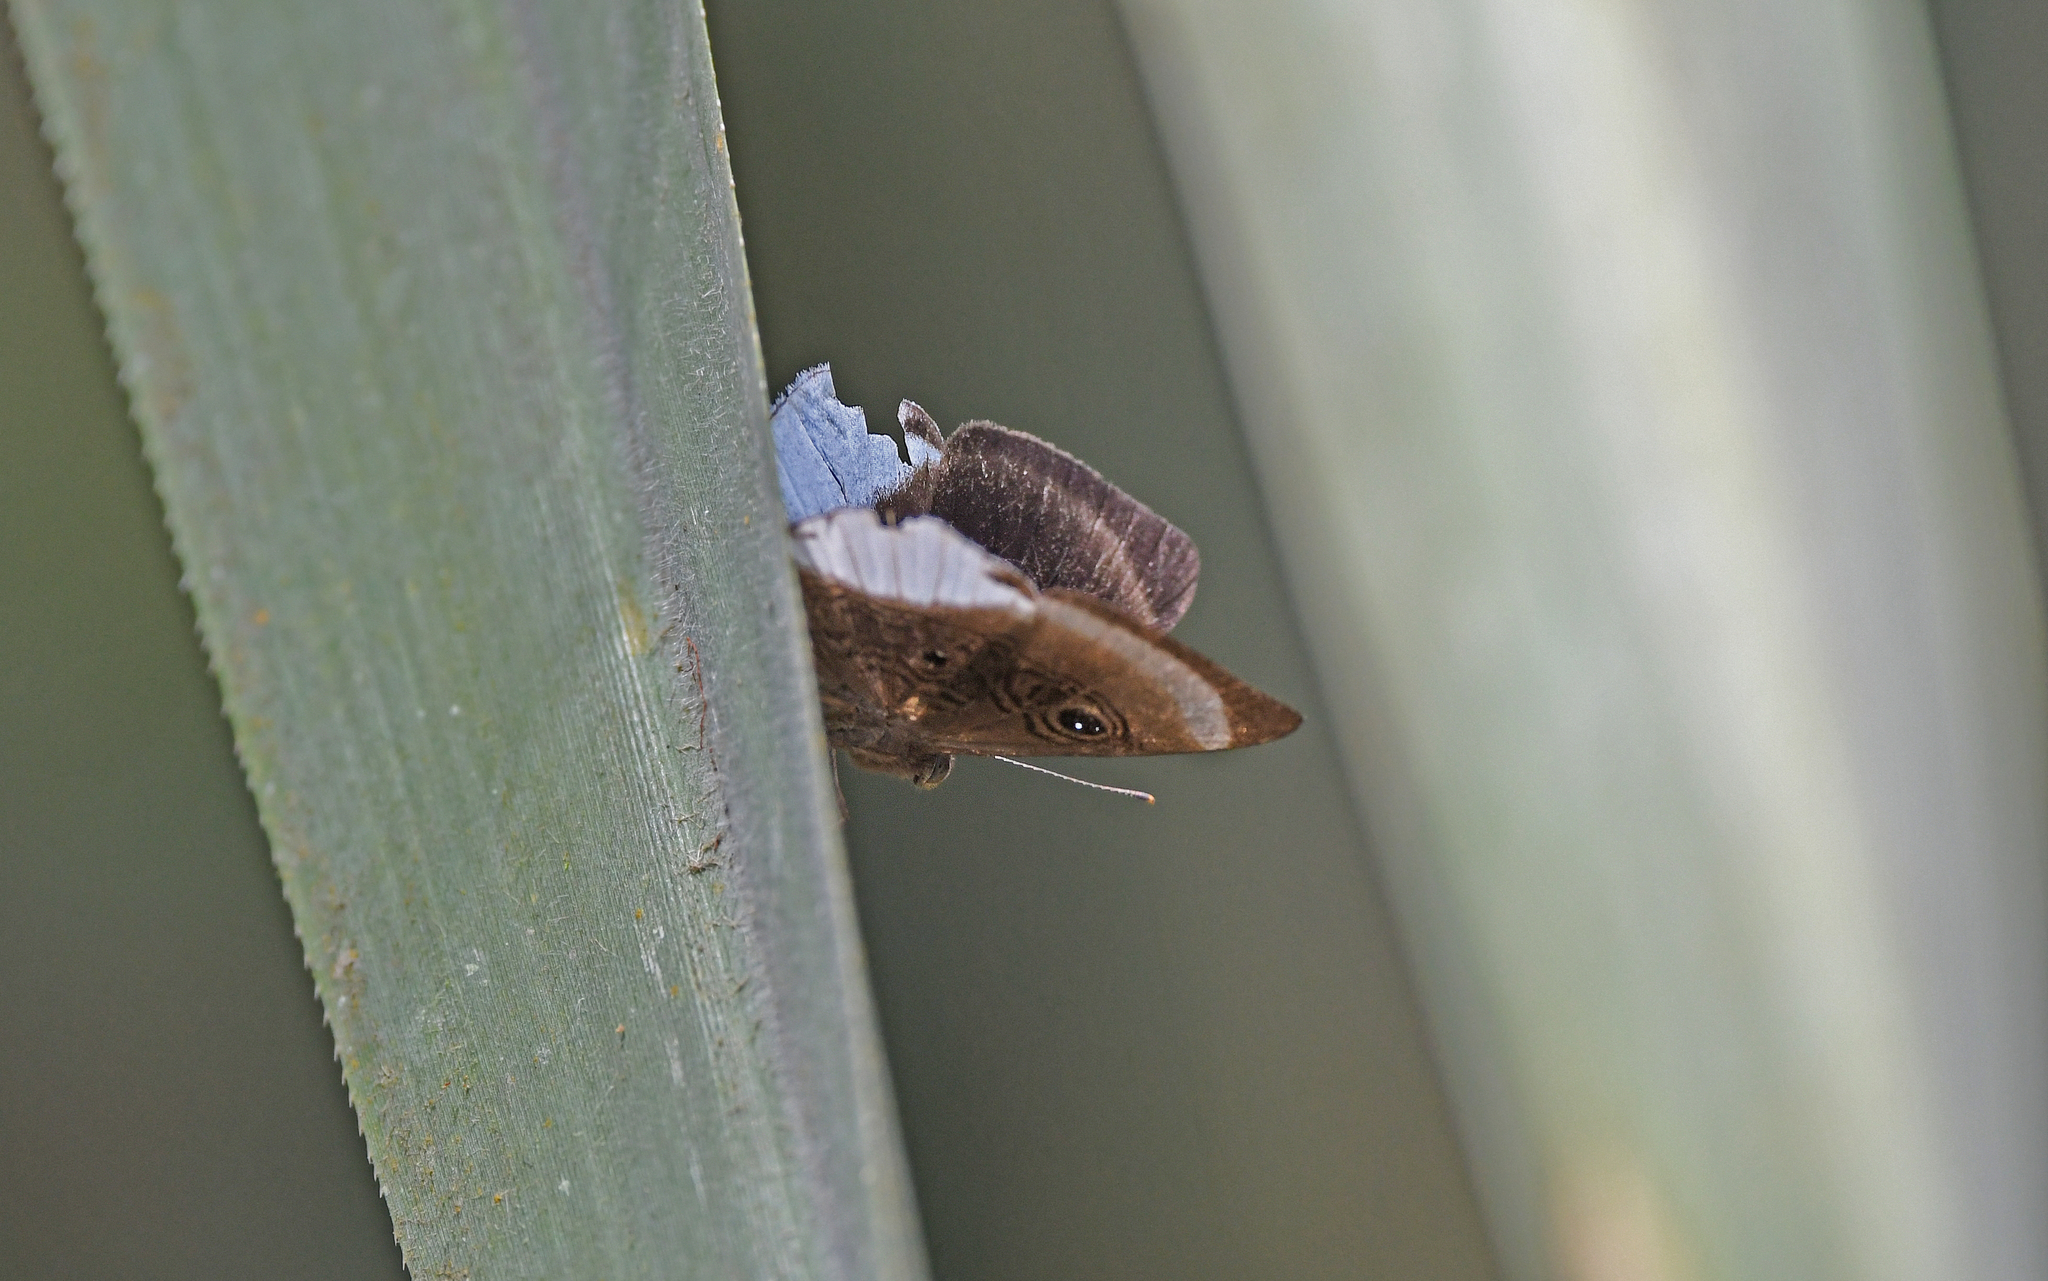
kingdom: Animalia
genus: Mesosemia
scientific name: Mesosemia ahava
